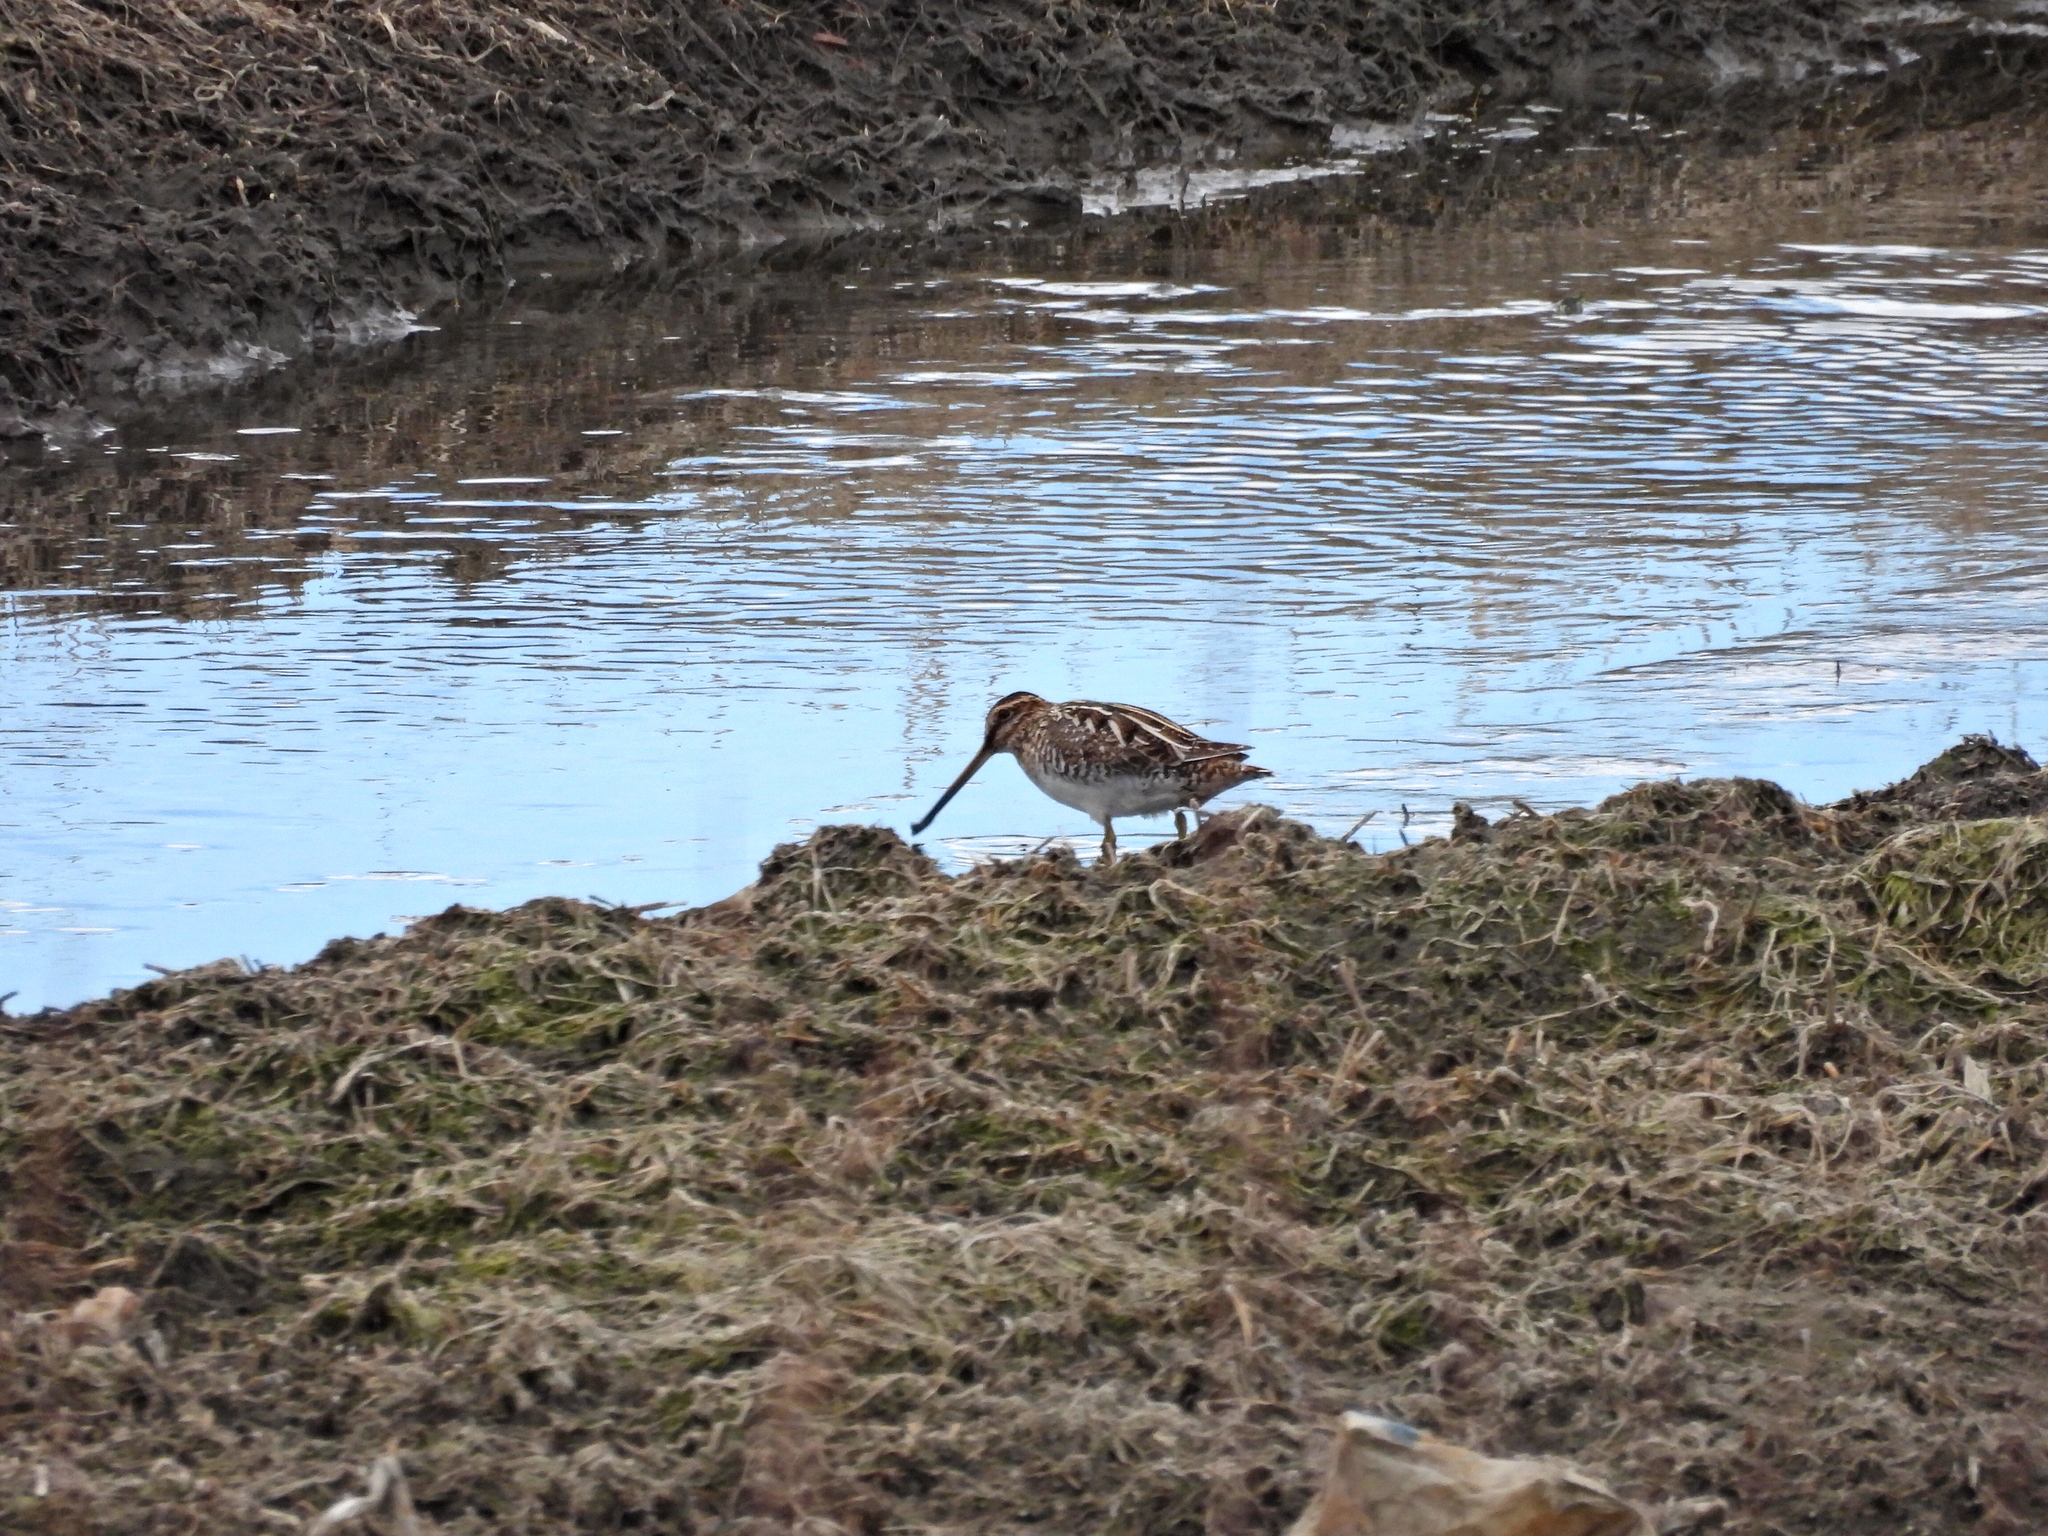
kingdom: Animalia
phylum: Chordata
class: Aves
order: Charadriiformes
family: Scolopacidae
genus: Gallinago
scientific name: Gallinago delicata
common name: Wilson's snipe
